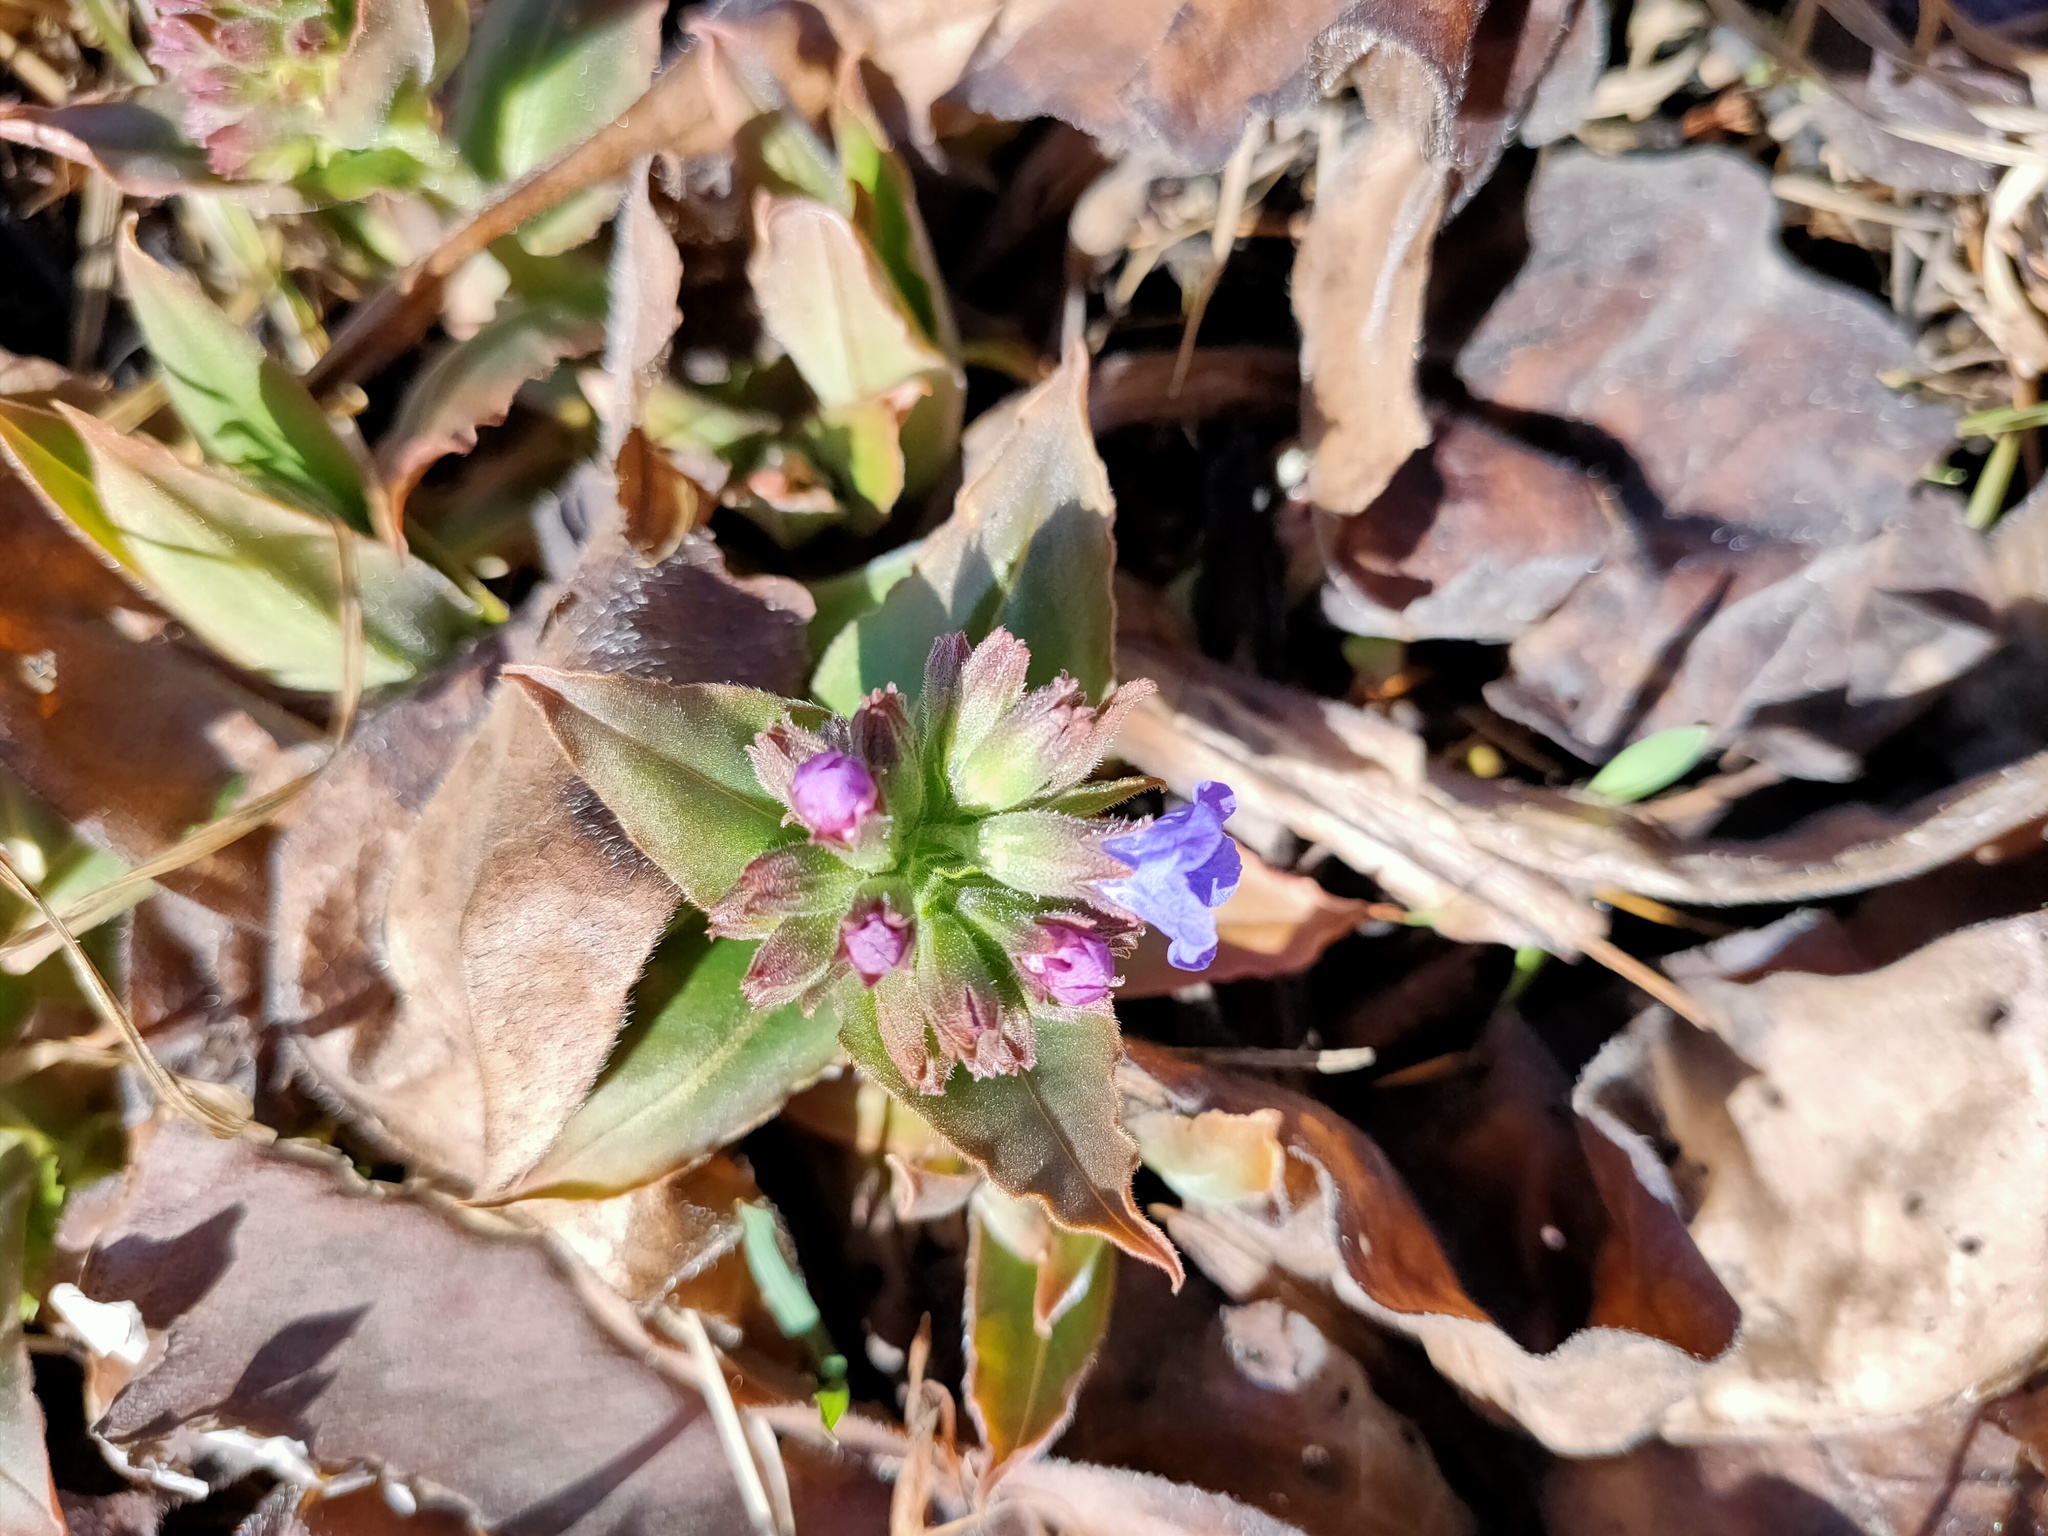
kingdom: Plantae
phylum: Tracheophyta
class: Magnoliopsida
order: Boraginales
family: Boraginaceae
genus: Pulmonaria
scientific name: Pulmonaria mollis
